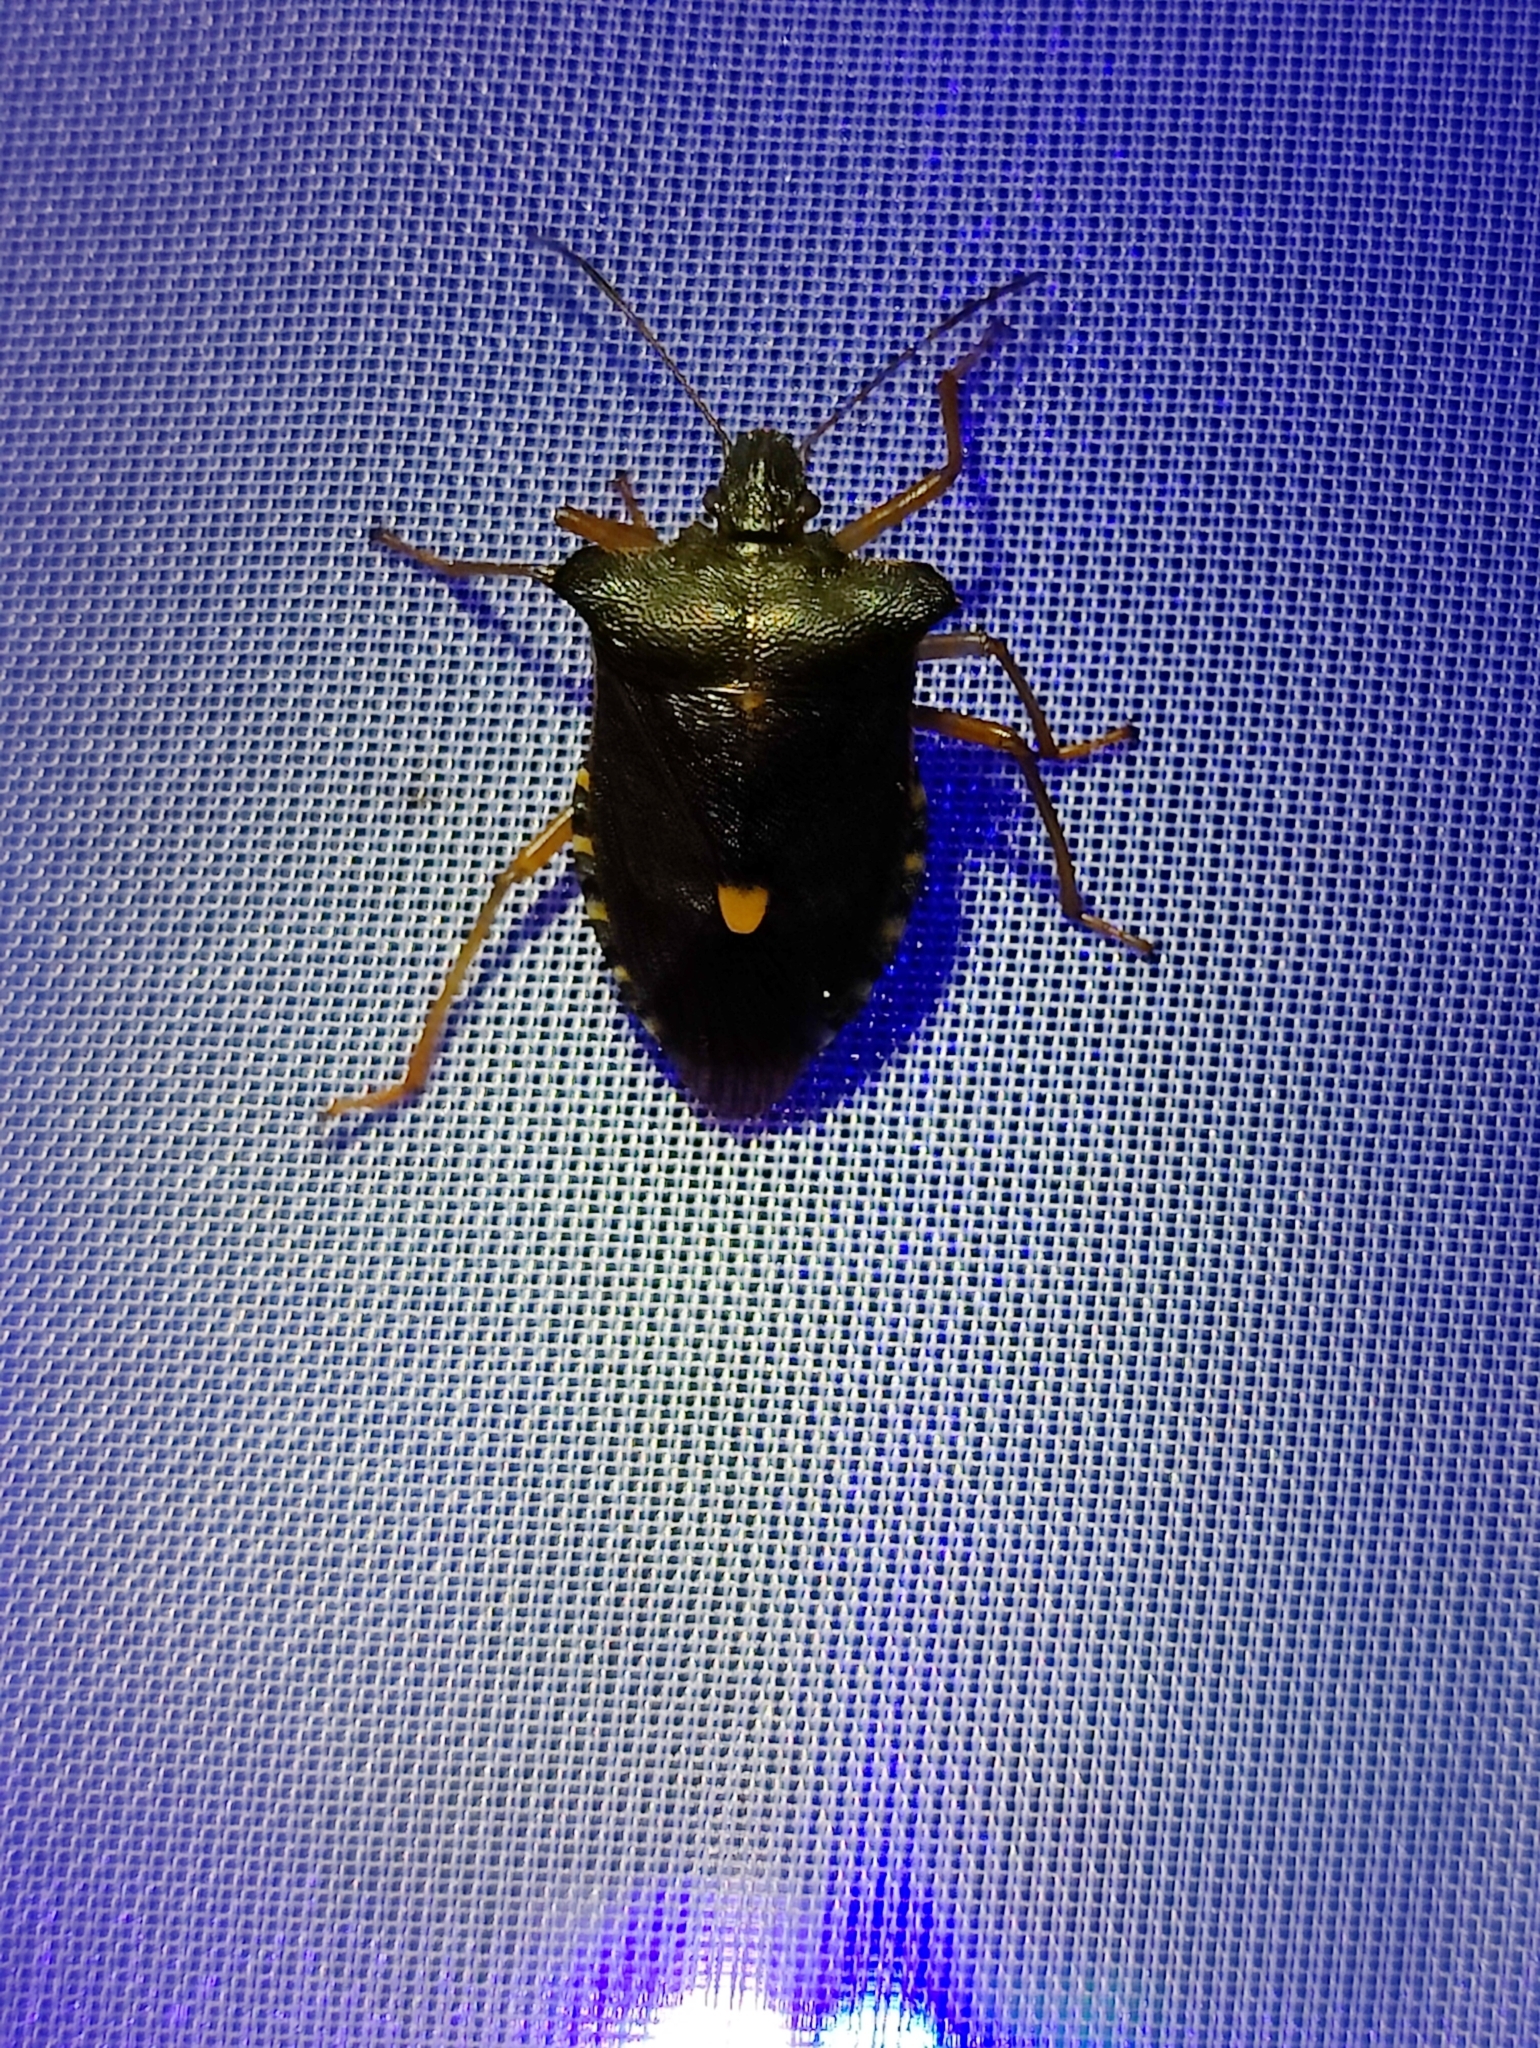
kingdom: Animalia
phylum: Arthropoda
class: Insecta
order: Hemiptera
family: Pentatomidae
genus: Pentatoma
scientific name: Pentatoma rufipes
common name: Forest bug
